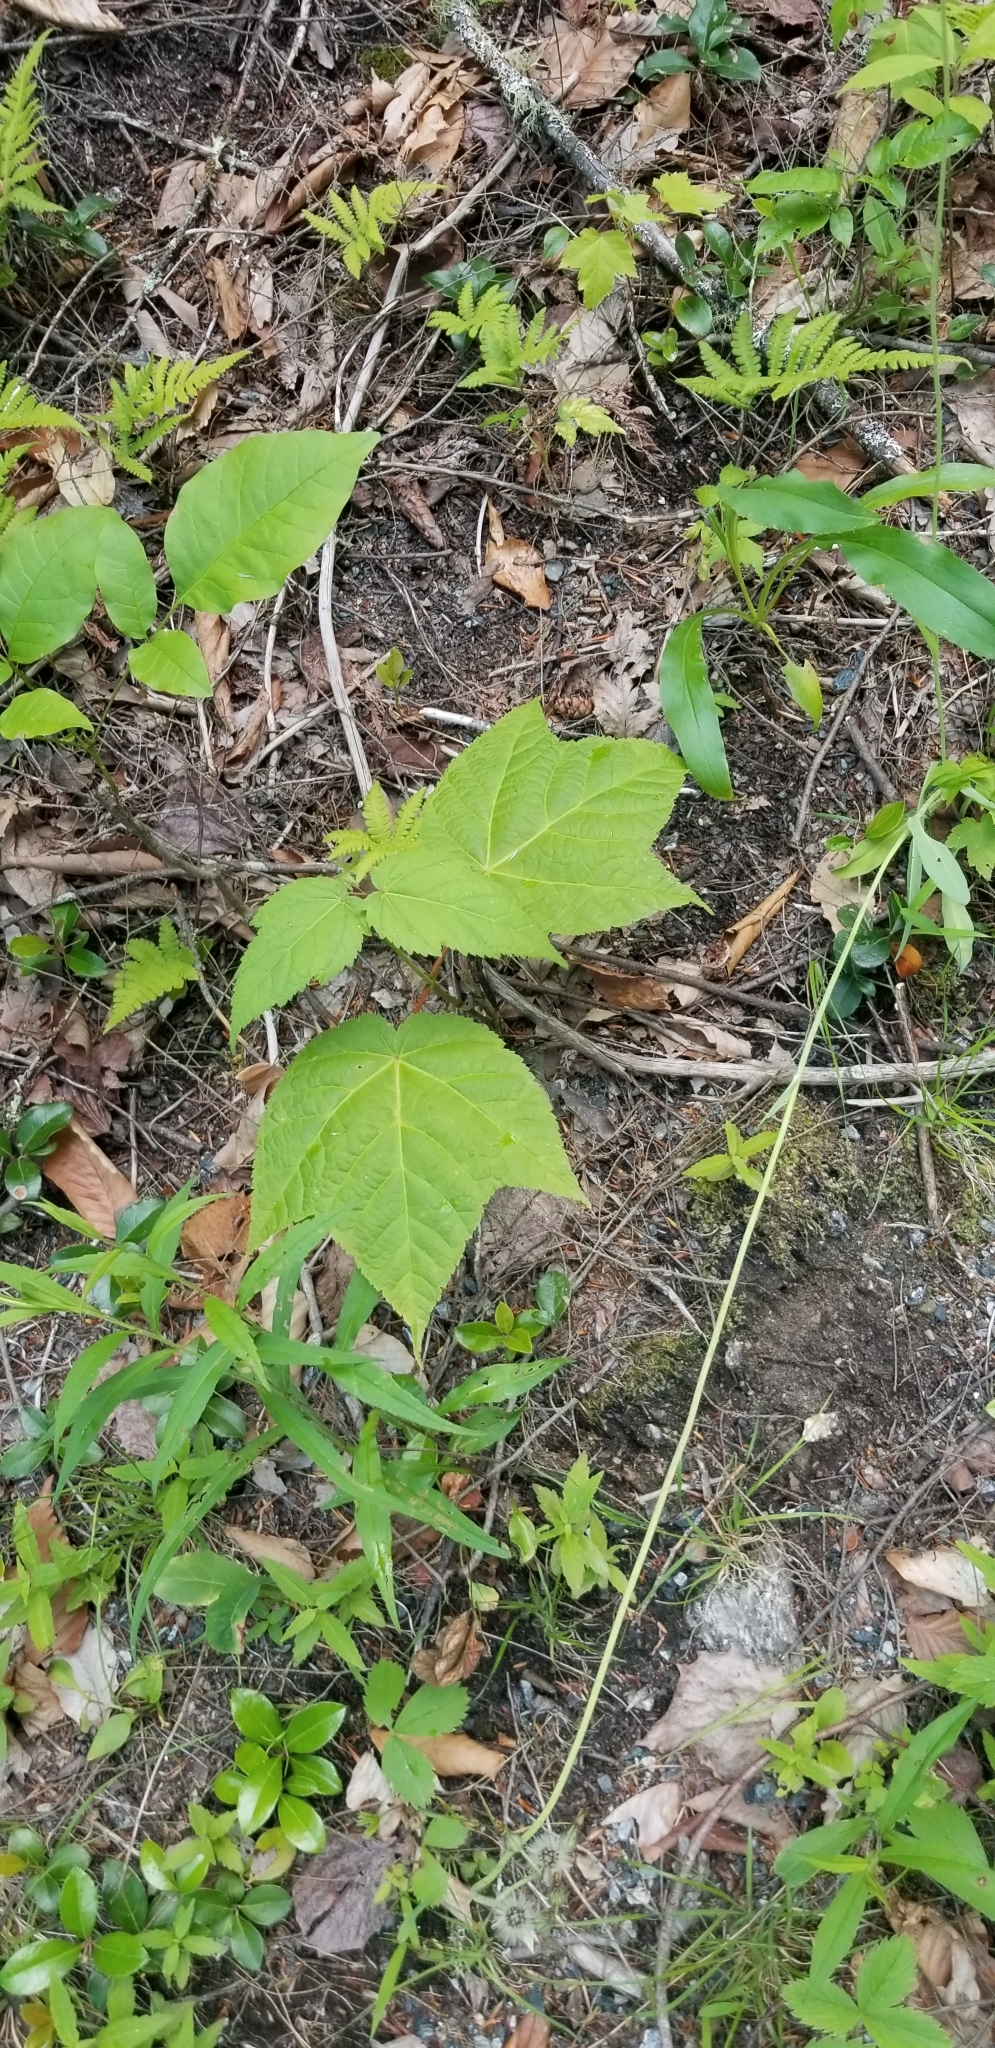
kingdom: Plantae
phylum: Tracheophyta
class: Magnoliopsida
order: Sapindales
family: Sapindaceae
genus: Acer
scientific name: Acer pensylvanicum
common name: Moosewood
